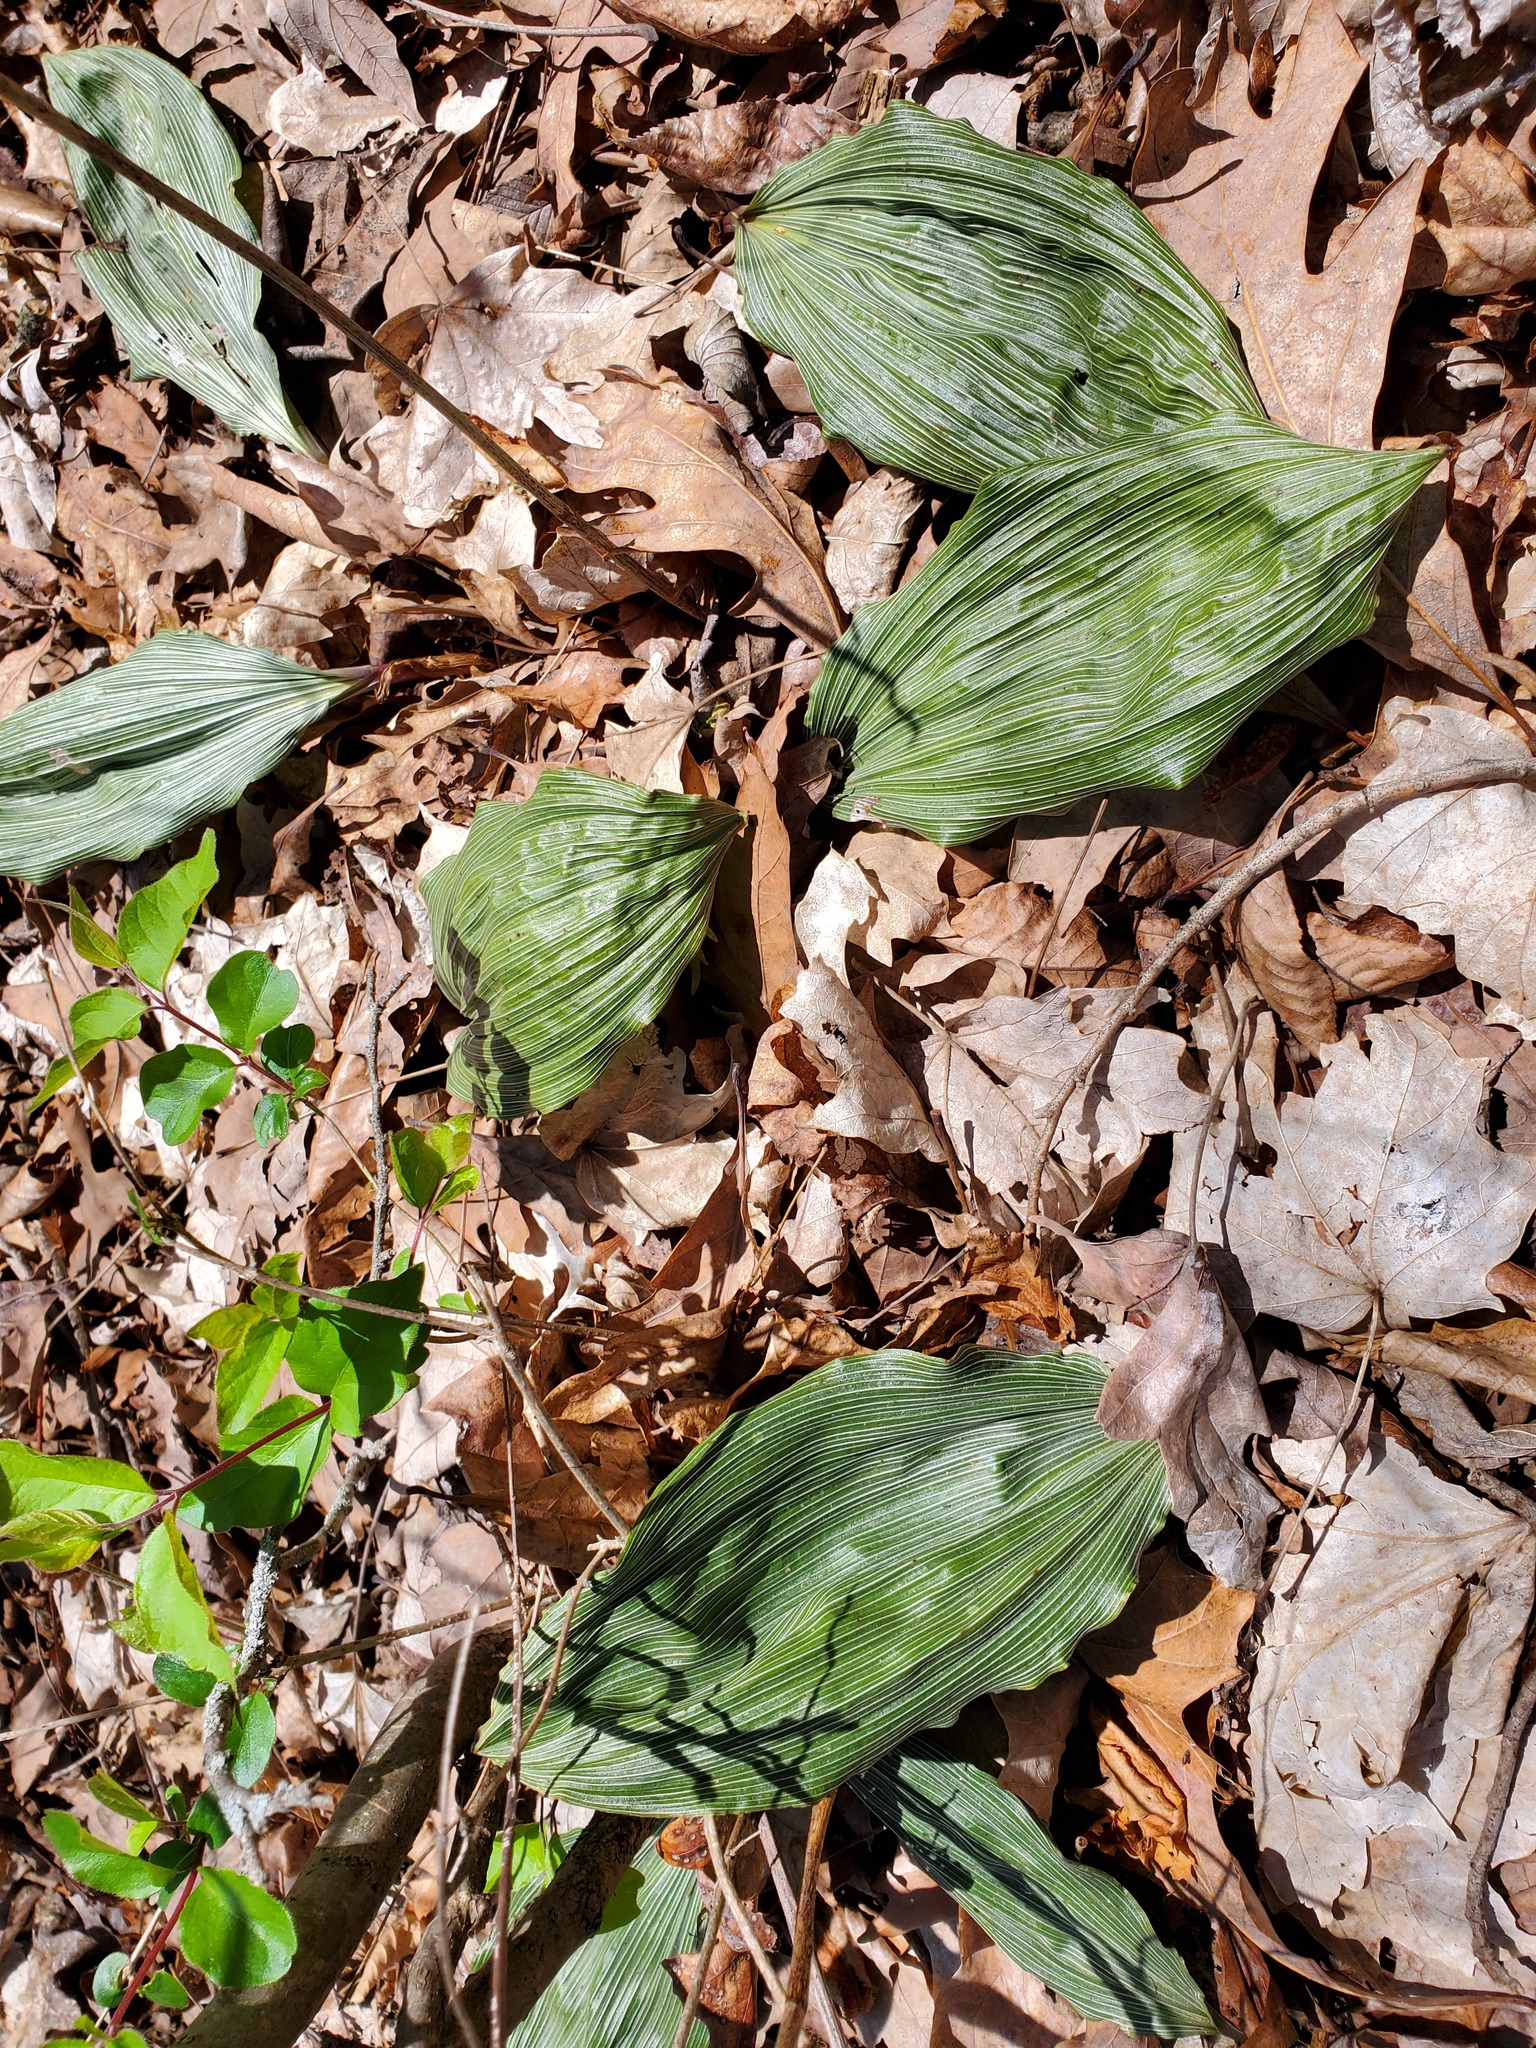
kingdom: Plantae
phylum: Tracheophyta
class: Liliopsida
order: Asparagales
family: Orchidaceae
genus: Aplectrum
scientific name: Aplectrum hyemale
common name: Adam-and-eve
